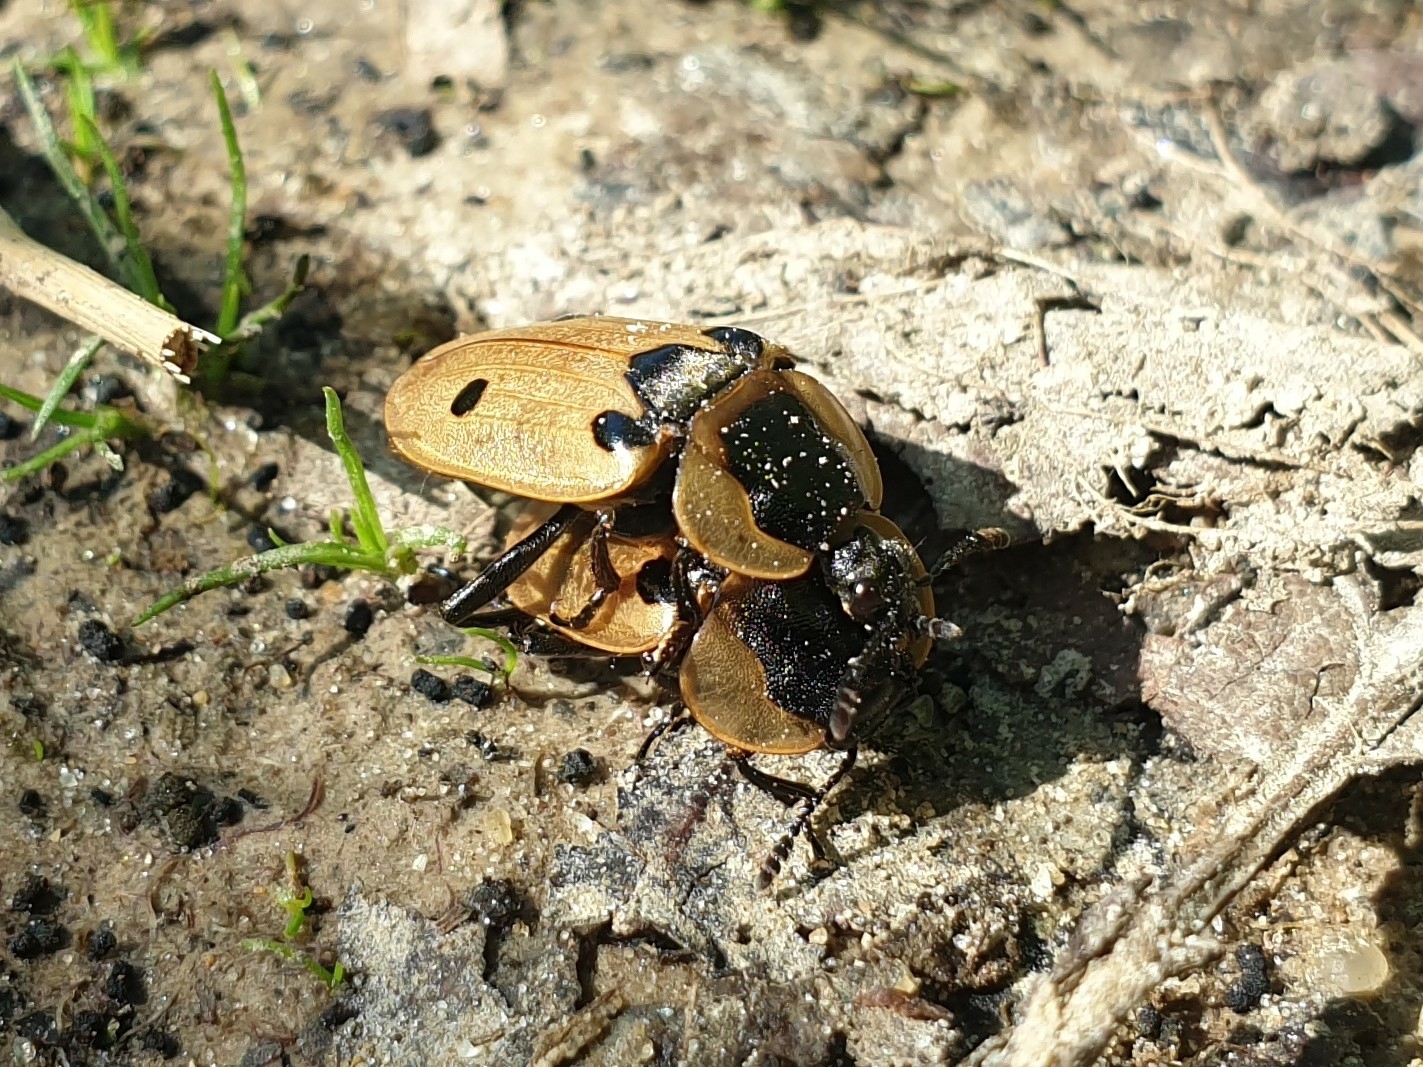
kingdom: Animalia
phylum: Arthropoda
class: Insecta
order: Coleoptera
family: Staphylinidae
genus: Dendroxena
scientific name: Dendroxena quadrimaculata
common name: Carrion beetle
